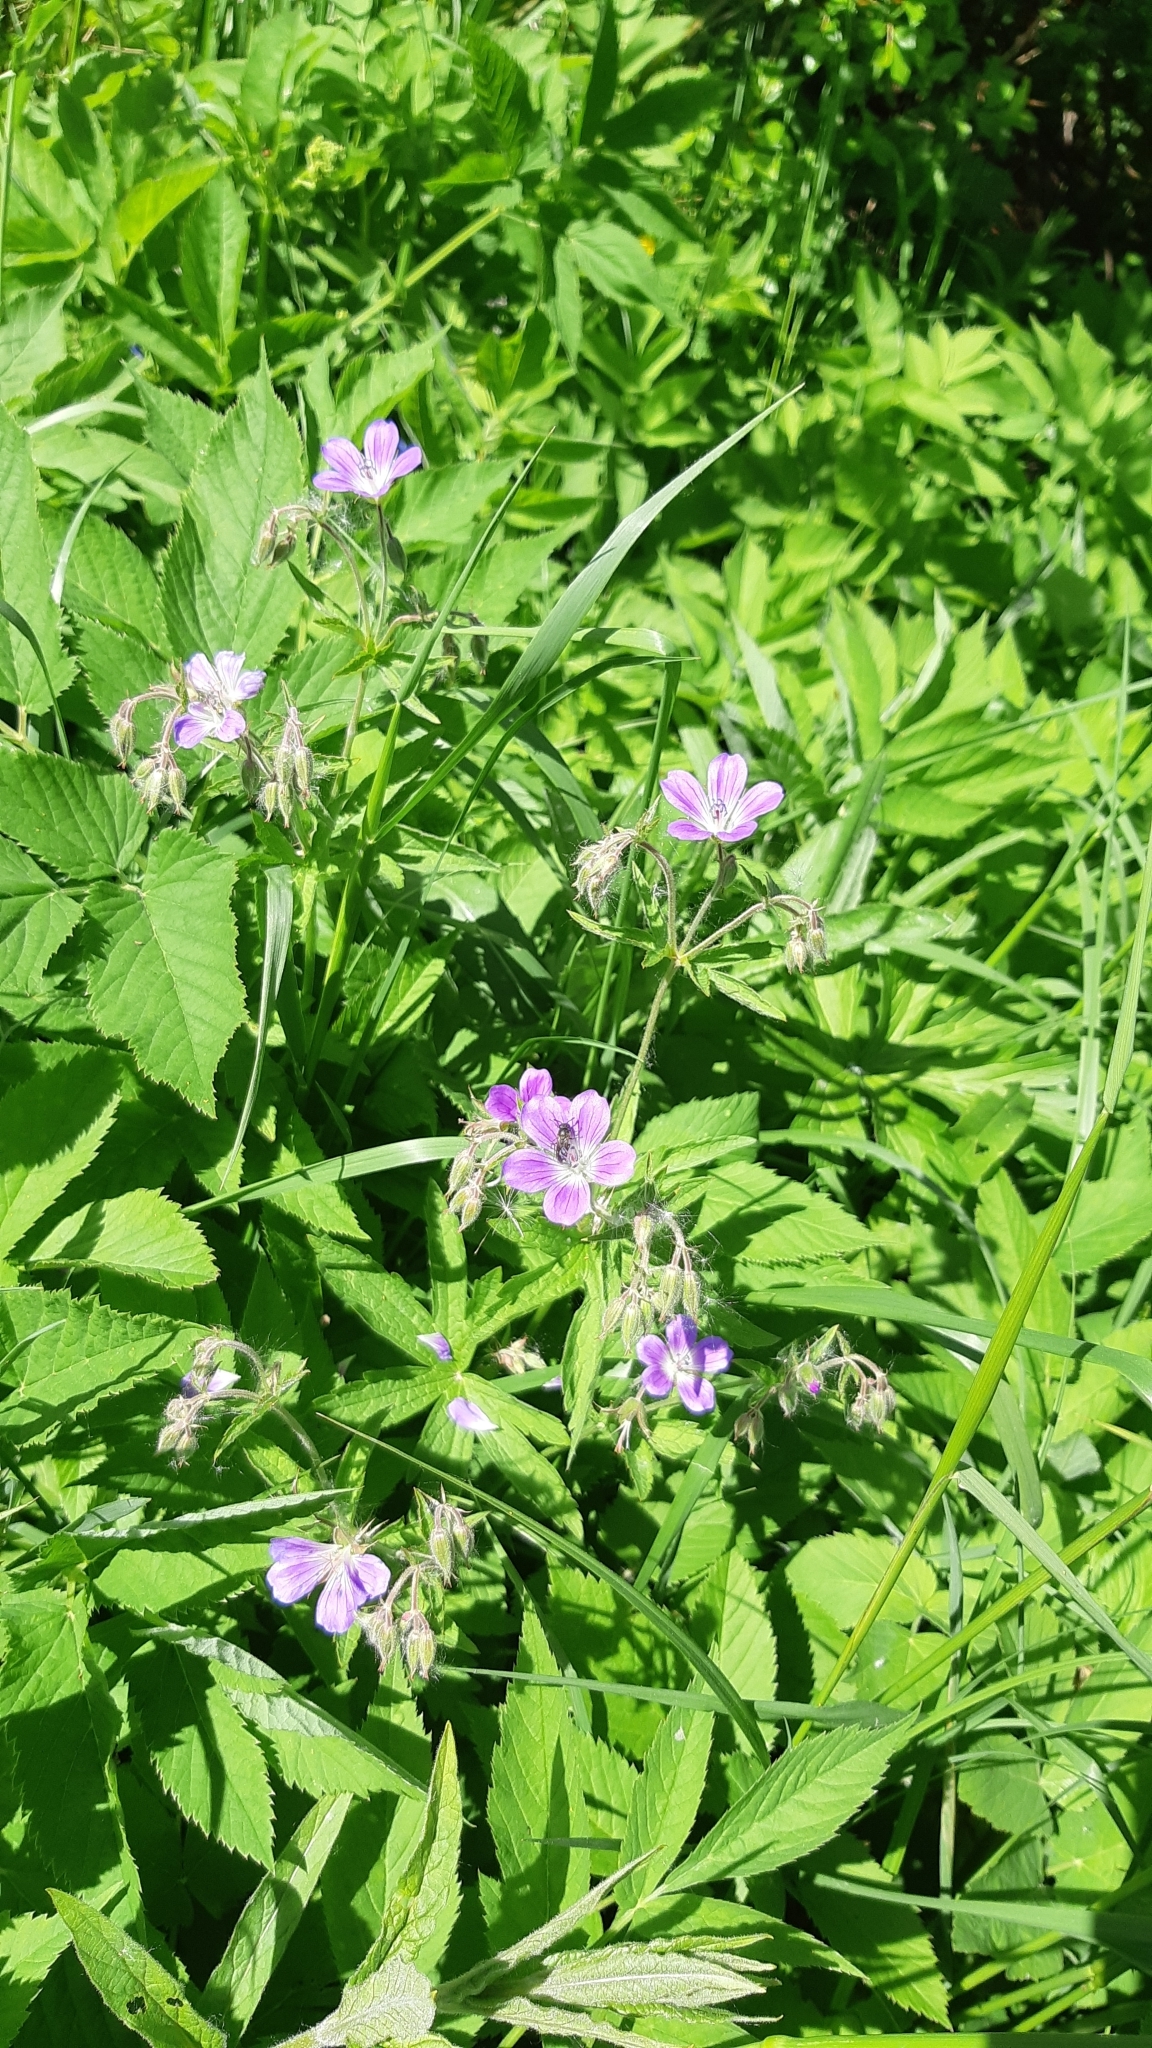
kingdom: Plantae
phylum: Tracheophyta
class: Magnoliopsida
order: Geraniales
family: Geraniaceae
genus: Geranium
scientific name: Geranium sylvaticum
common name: Wood crane's-bill
